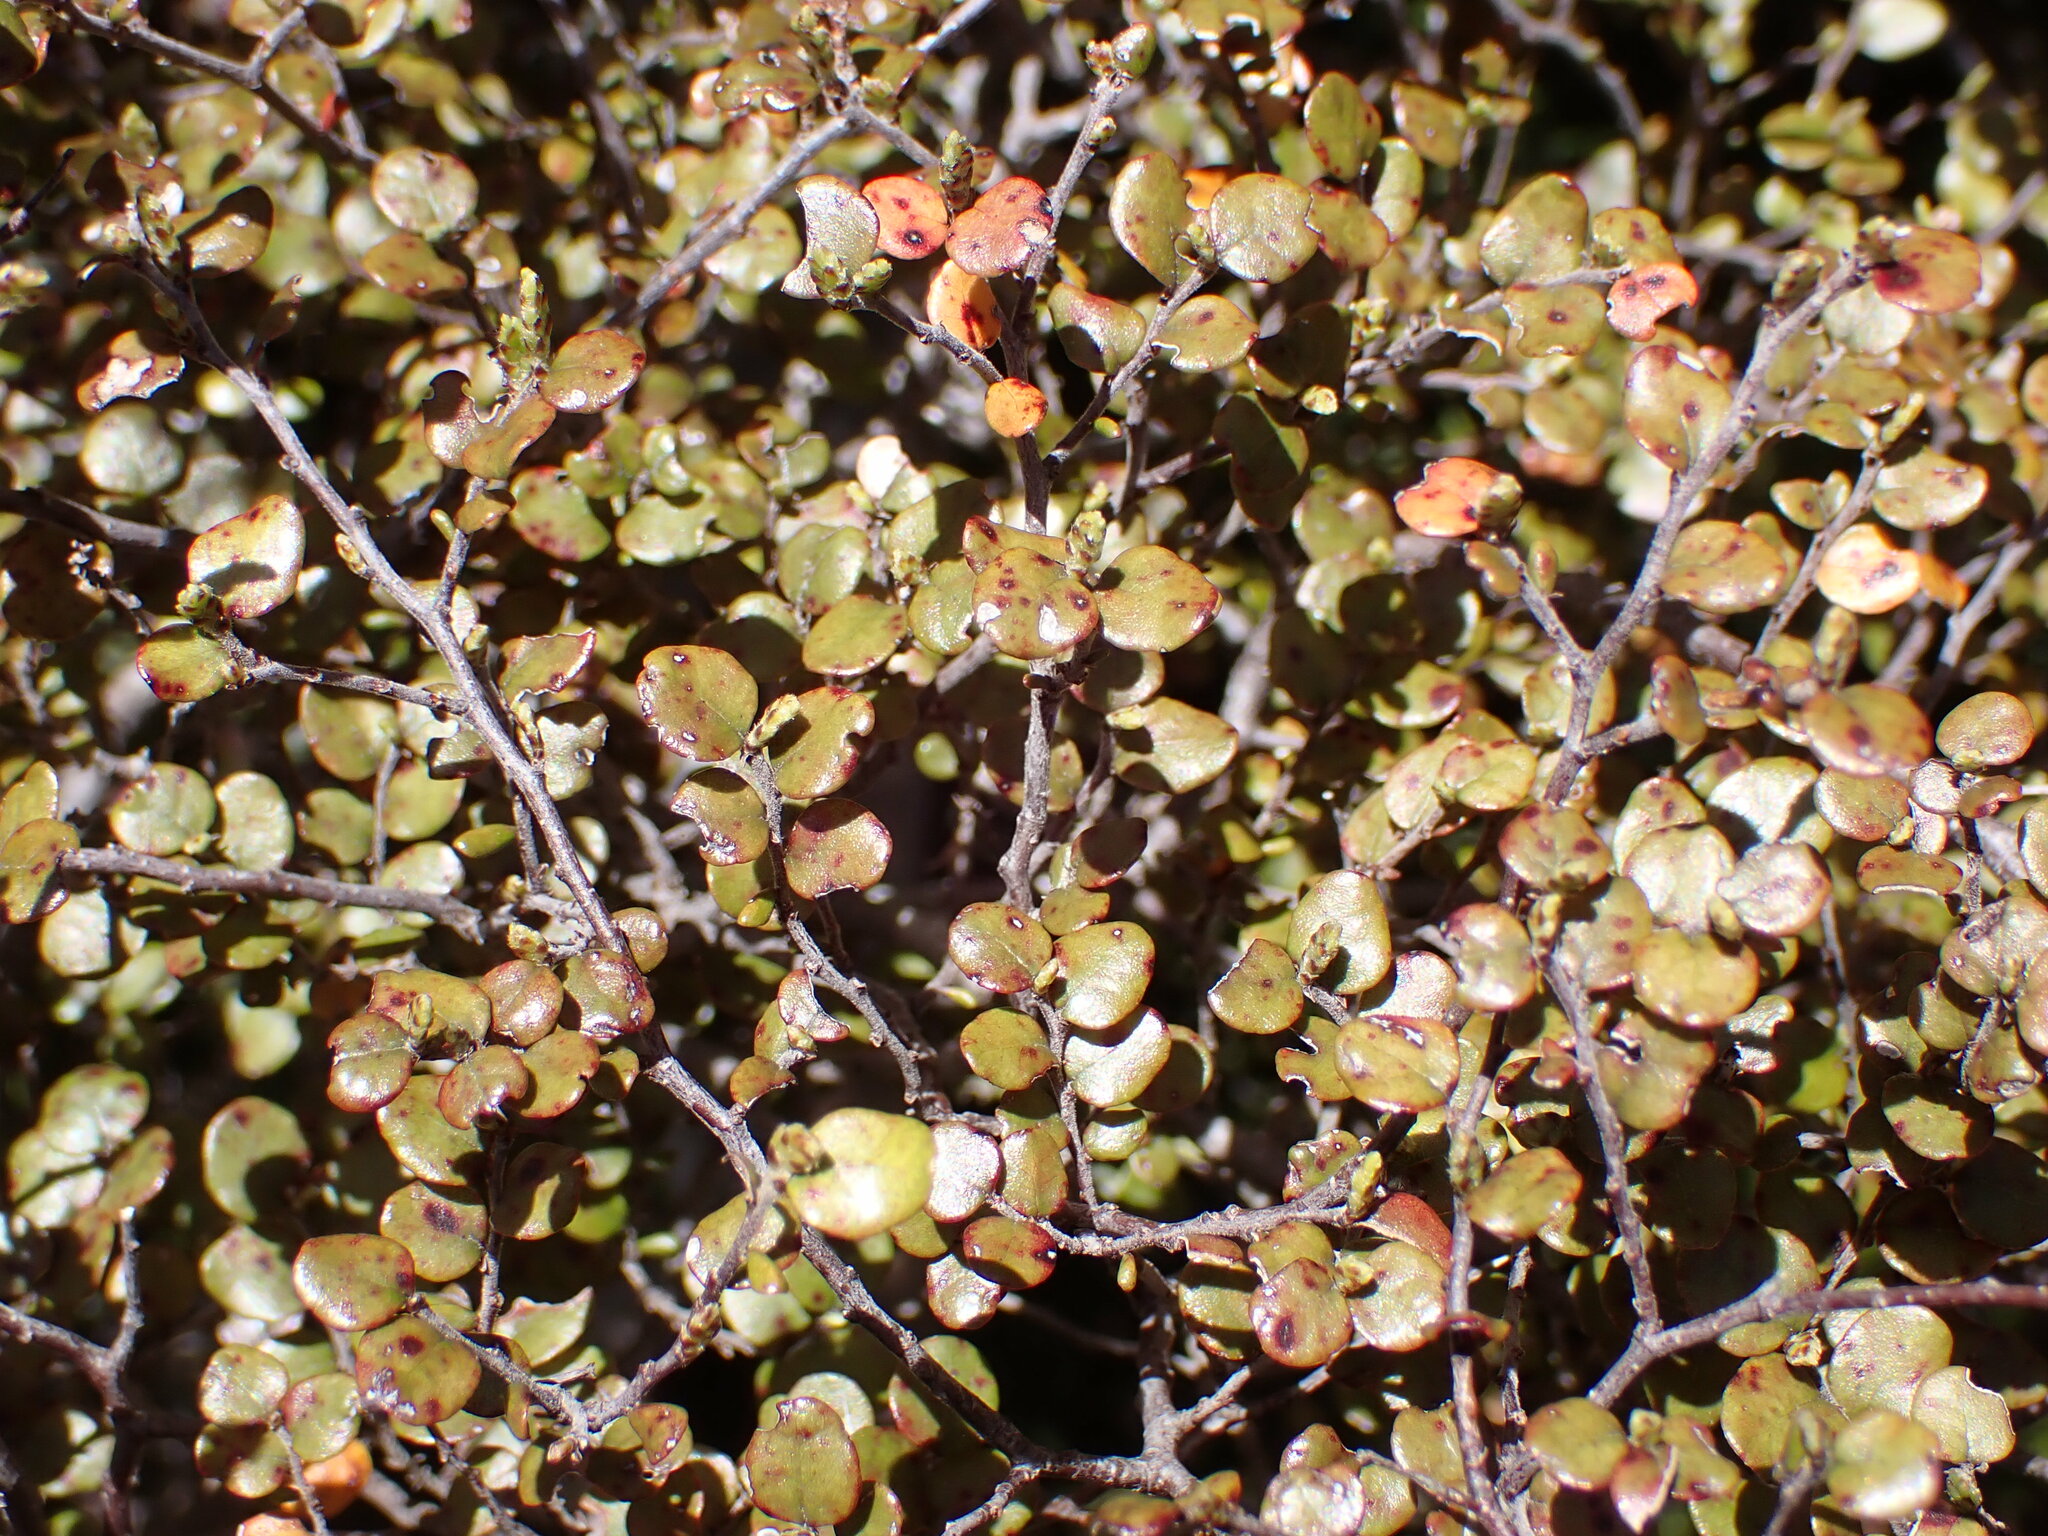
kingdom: Plantae
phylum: Tracheophyta
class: Magnoliopsida
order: Fagales
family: Nothofagaceae
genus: Nothofagus
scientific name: Nothofagus solandri
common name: Black beech
